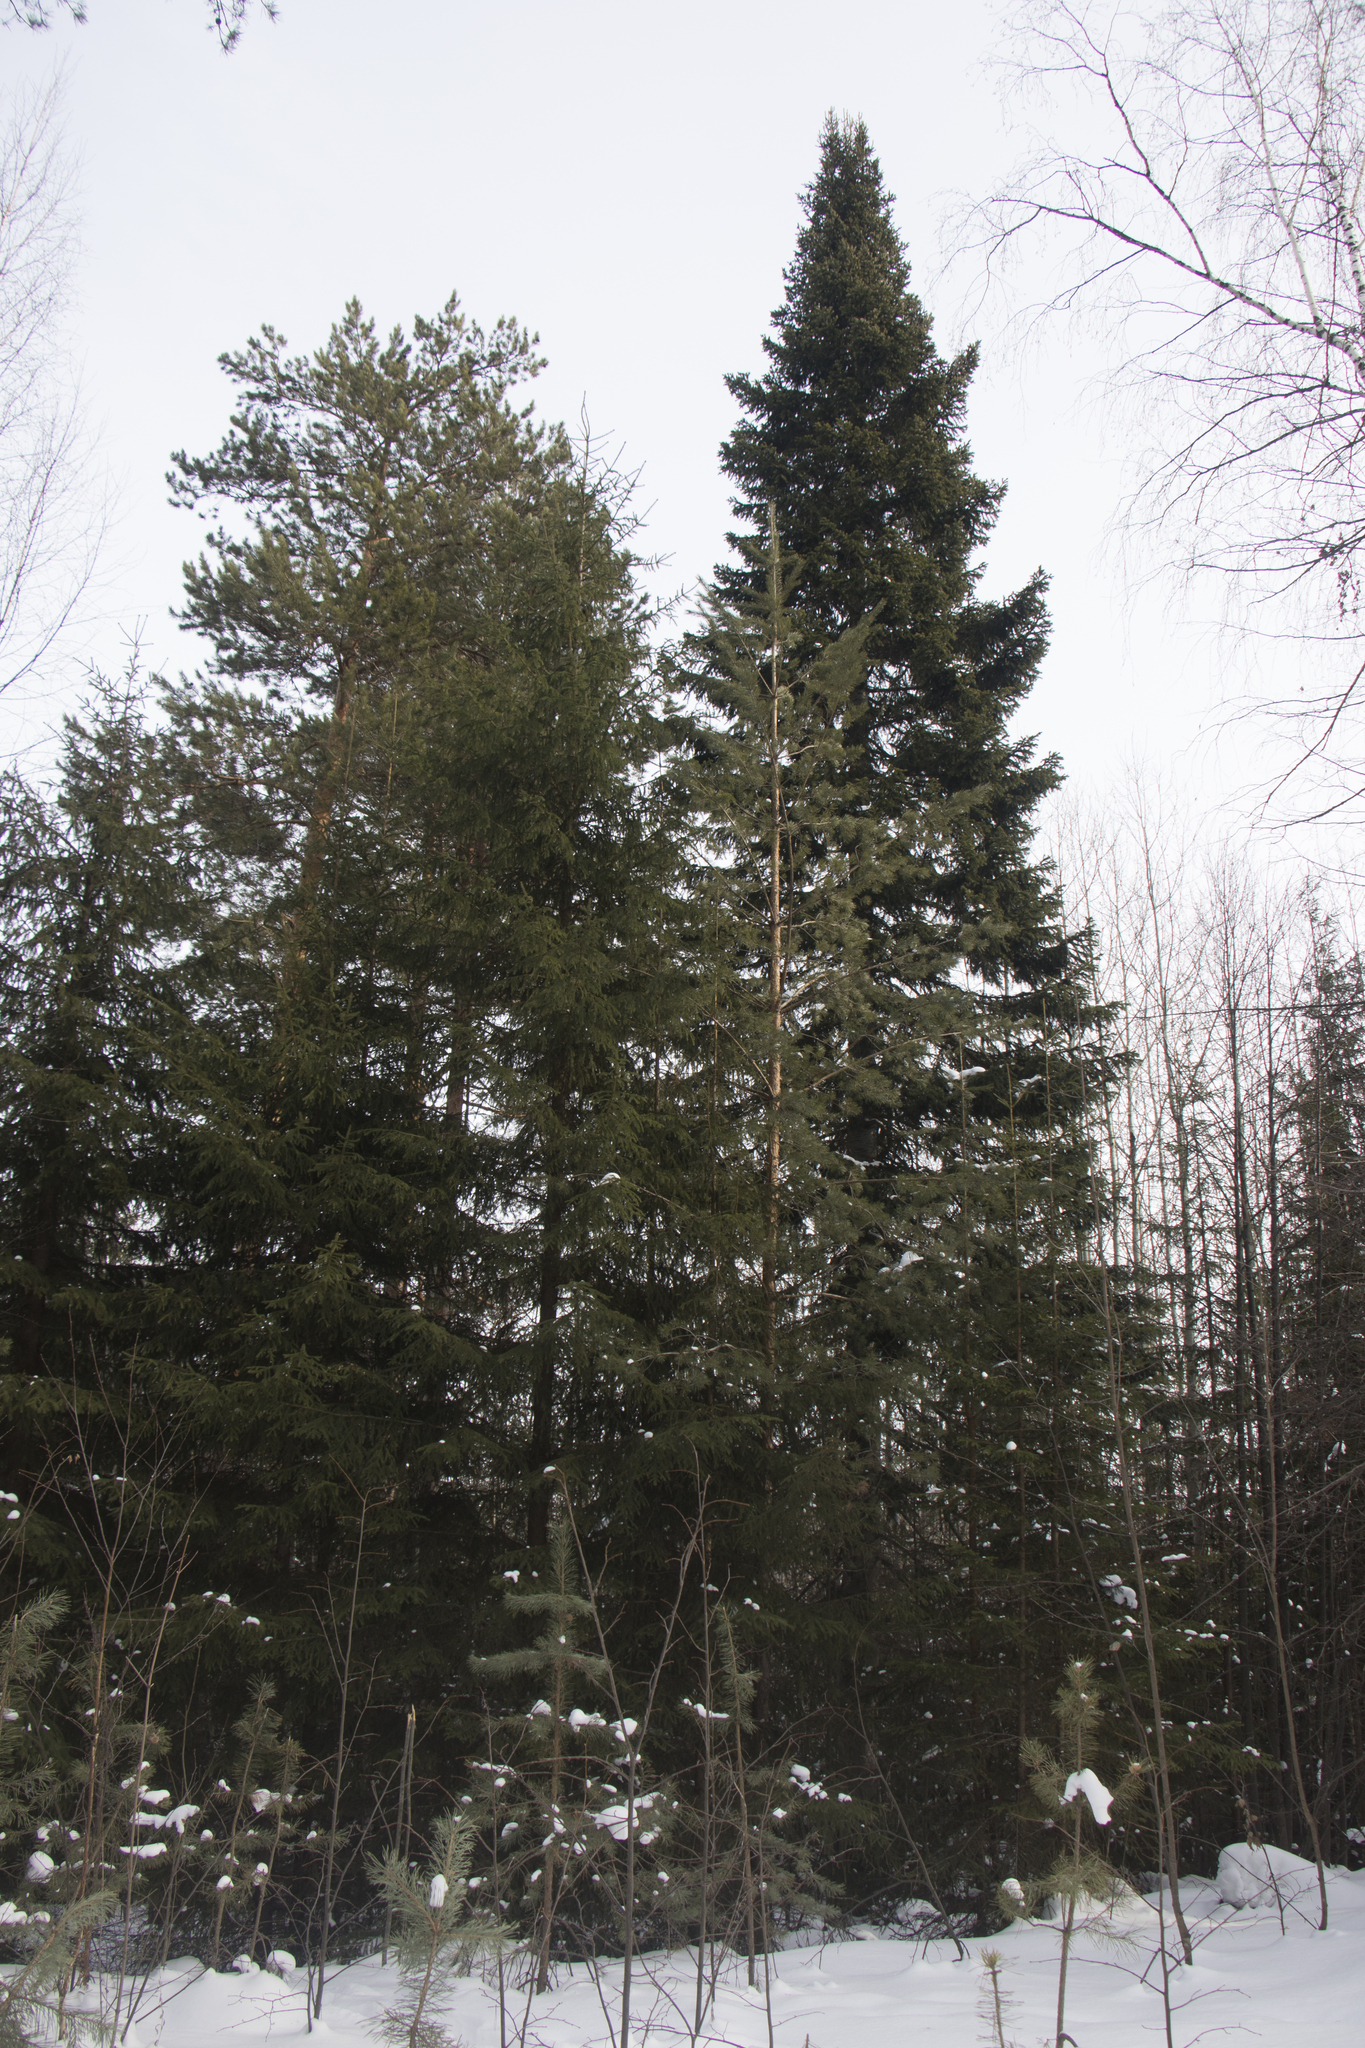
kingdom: Plantae
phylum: Tracheophyta
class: Pinopsida
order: Pinales
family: Pinaceae
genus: Abies
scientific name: Abies sibirica
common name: Siberian fir
